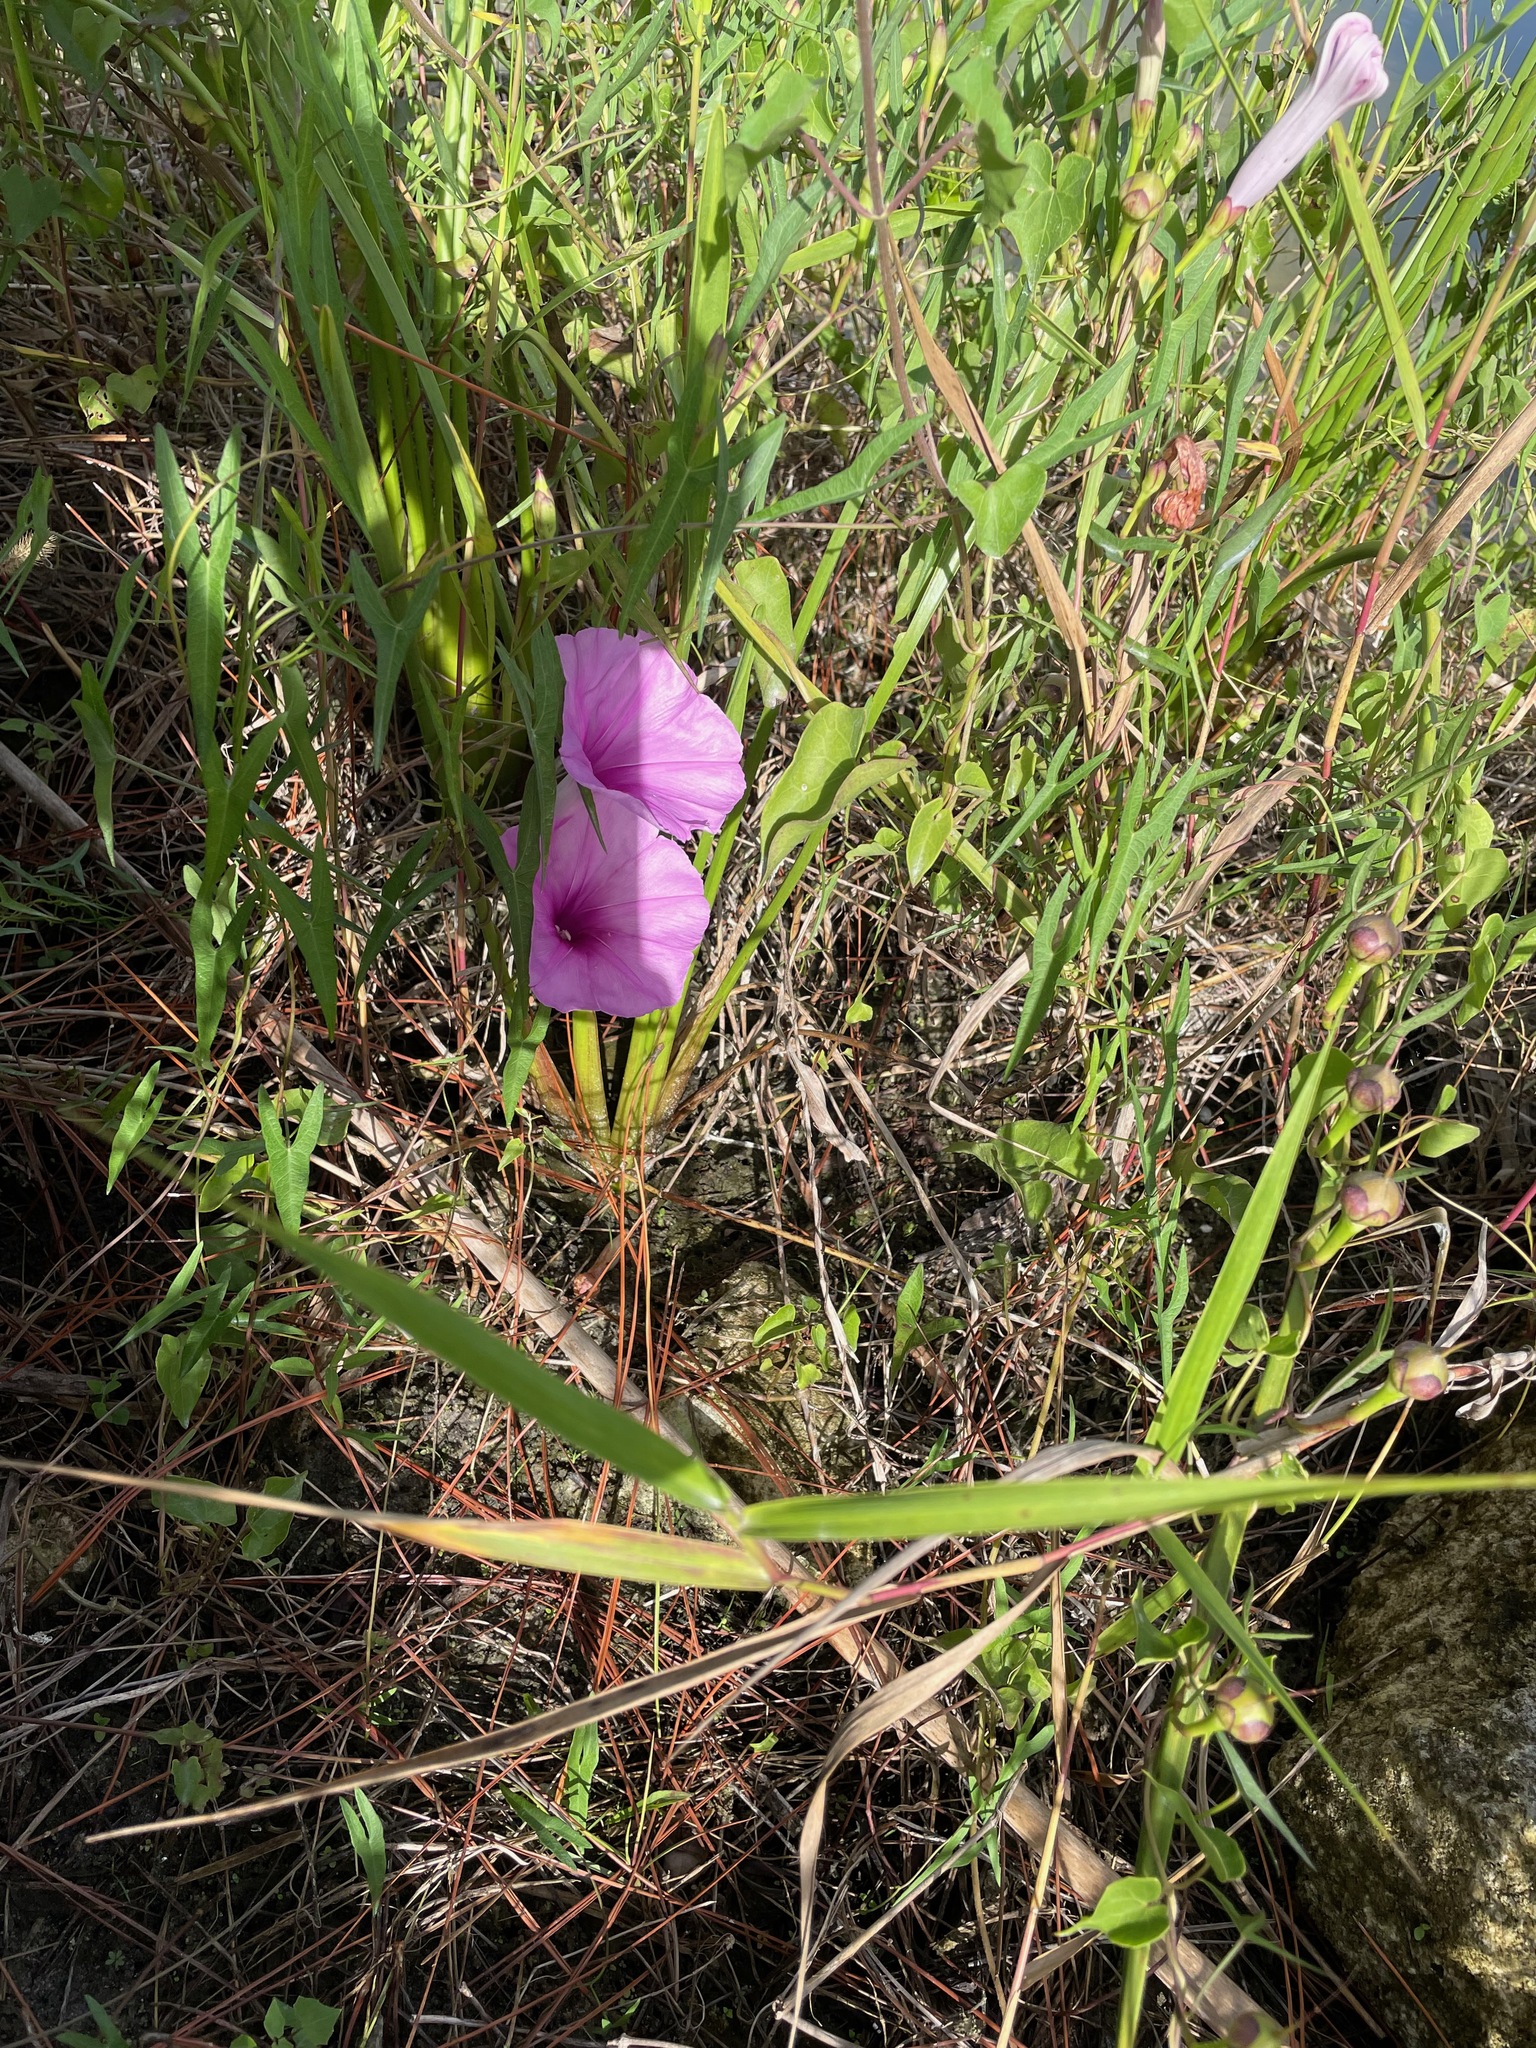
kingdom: Plantae
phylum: Tracheophyta
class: Magnoliopsida
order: Solanales
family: Convolvulaceae
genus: Ipomoea
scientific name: Ipomoea sagittata
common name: Saltmarsh morning glory
